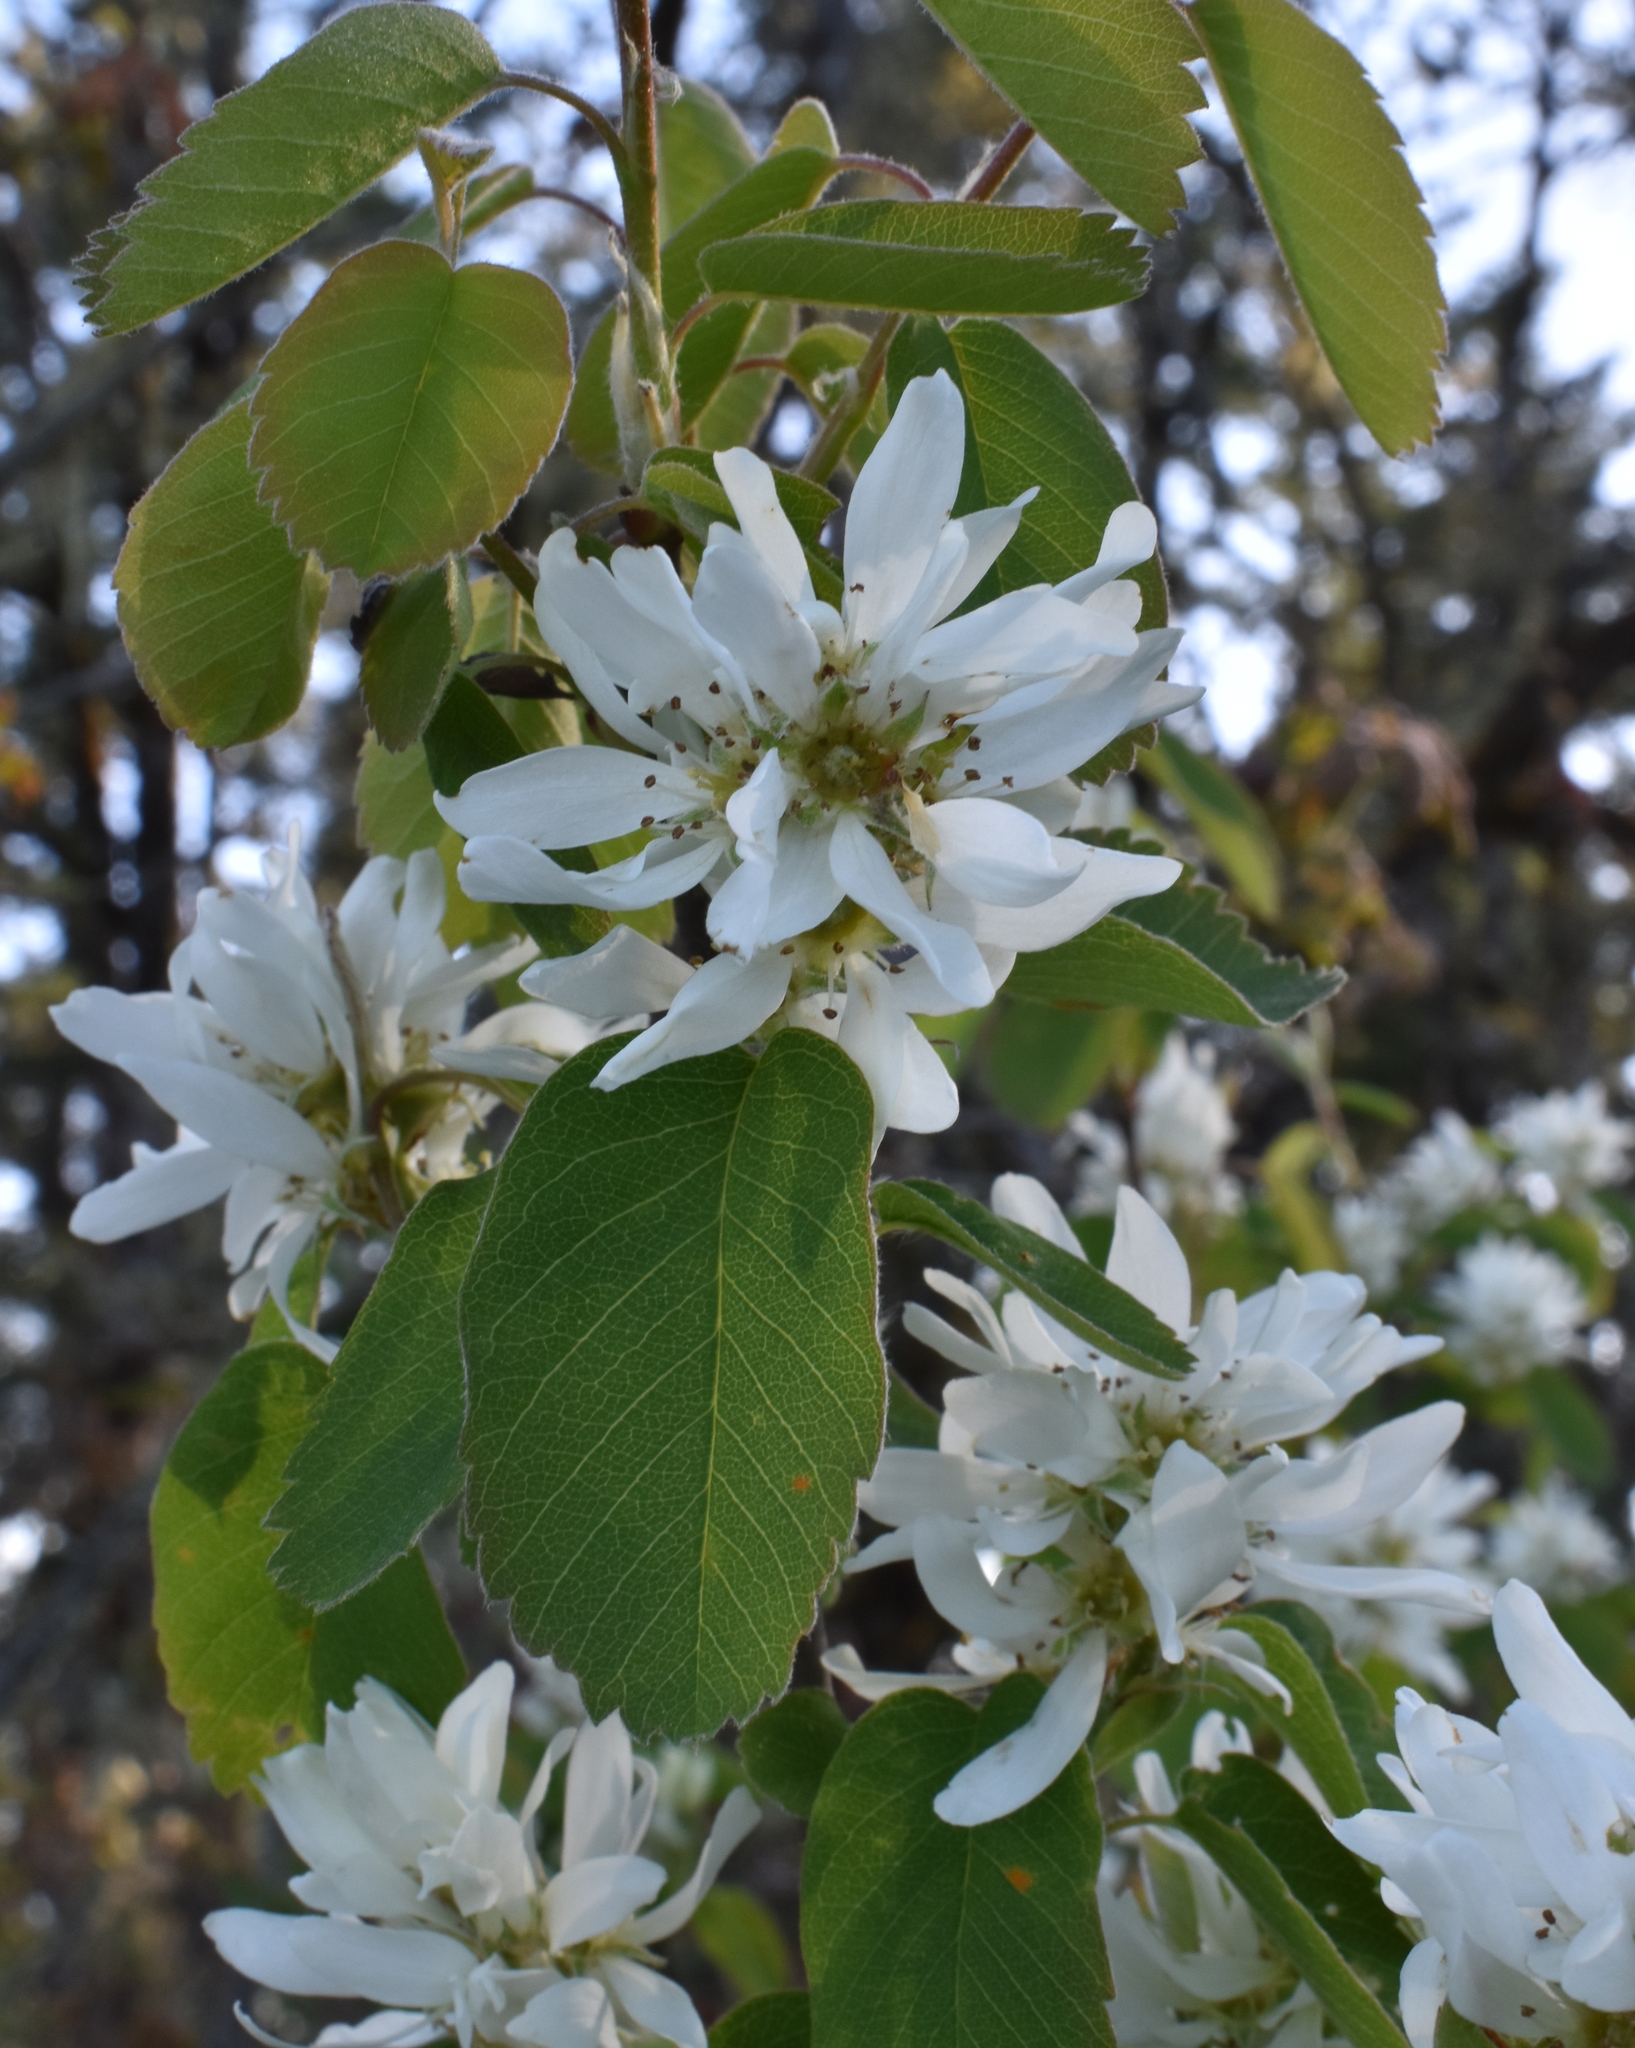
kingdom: Plantae
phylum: Tracheophyta
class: Magnoliopsida
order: Rosales
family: Rosaceae
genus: Amelanchier
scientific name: Amelanchier alnifolia
